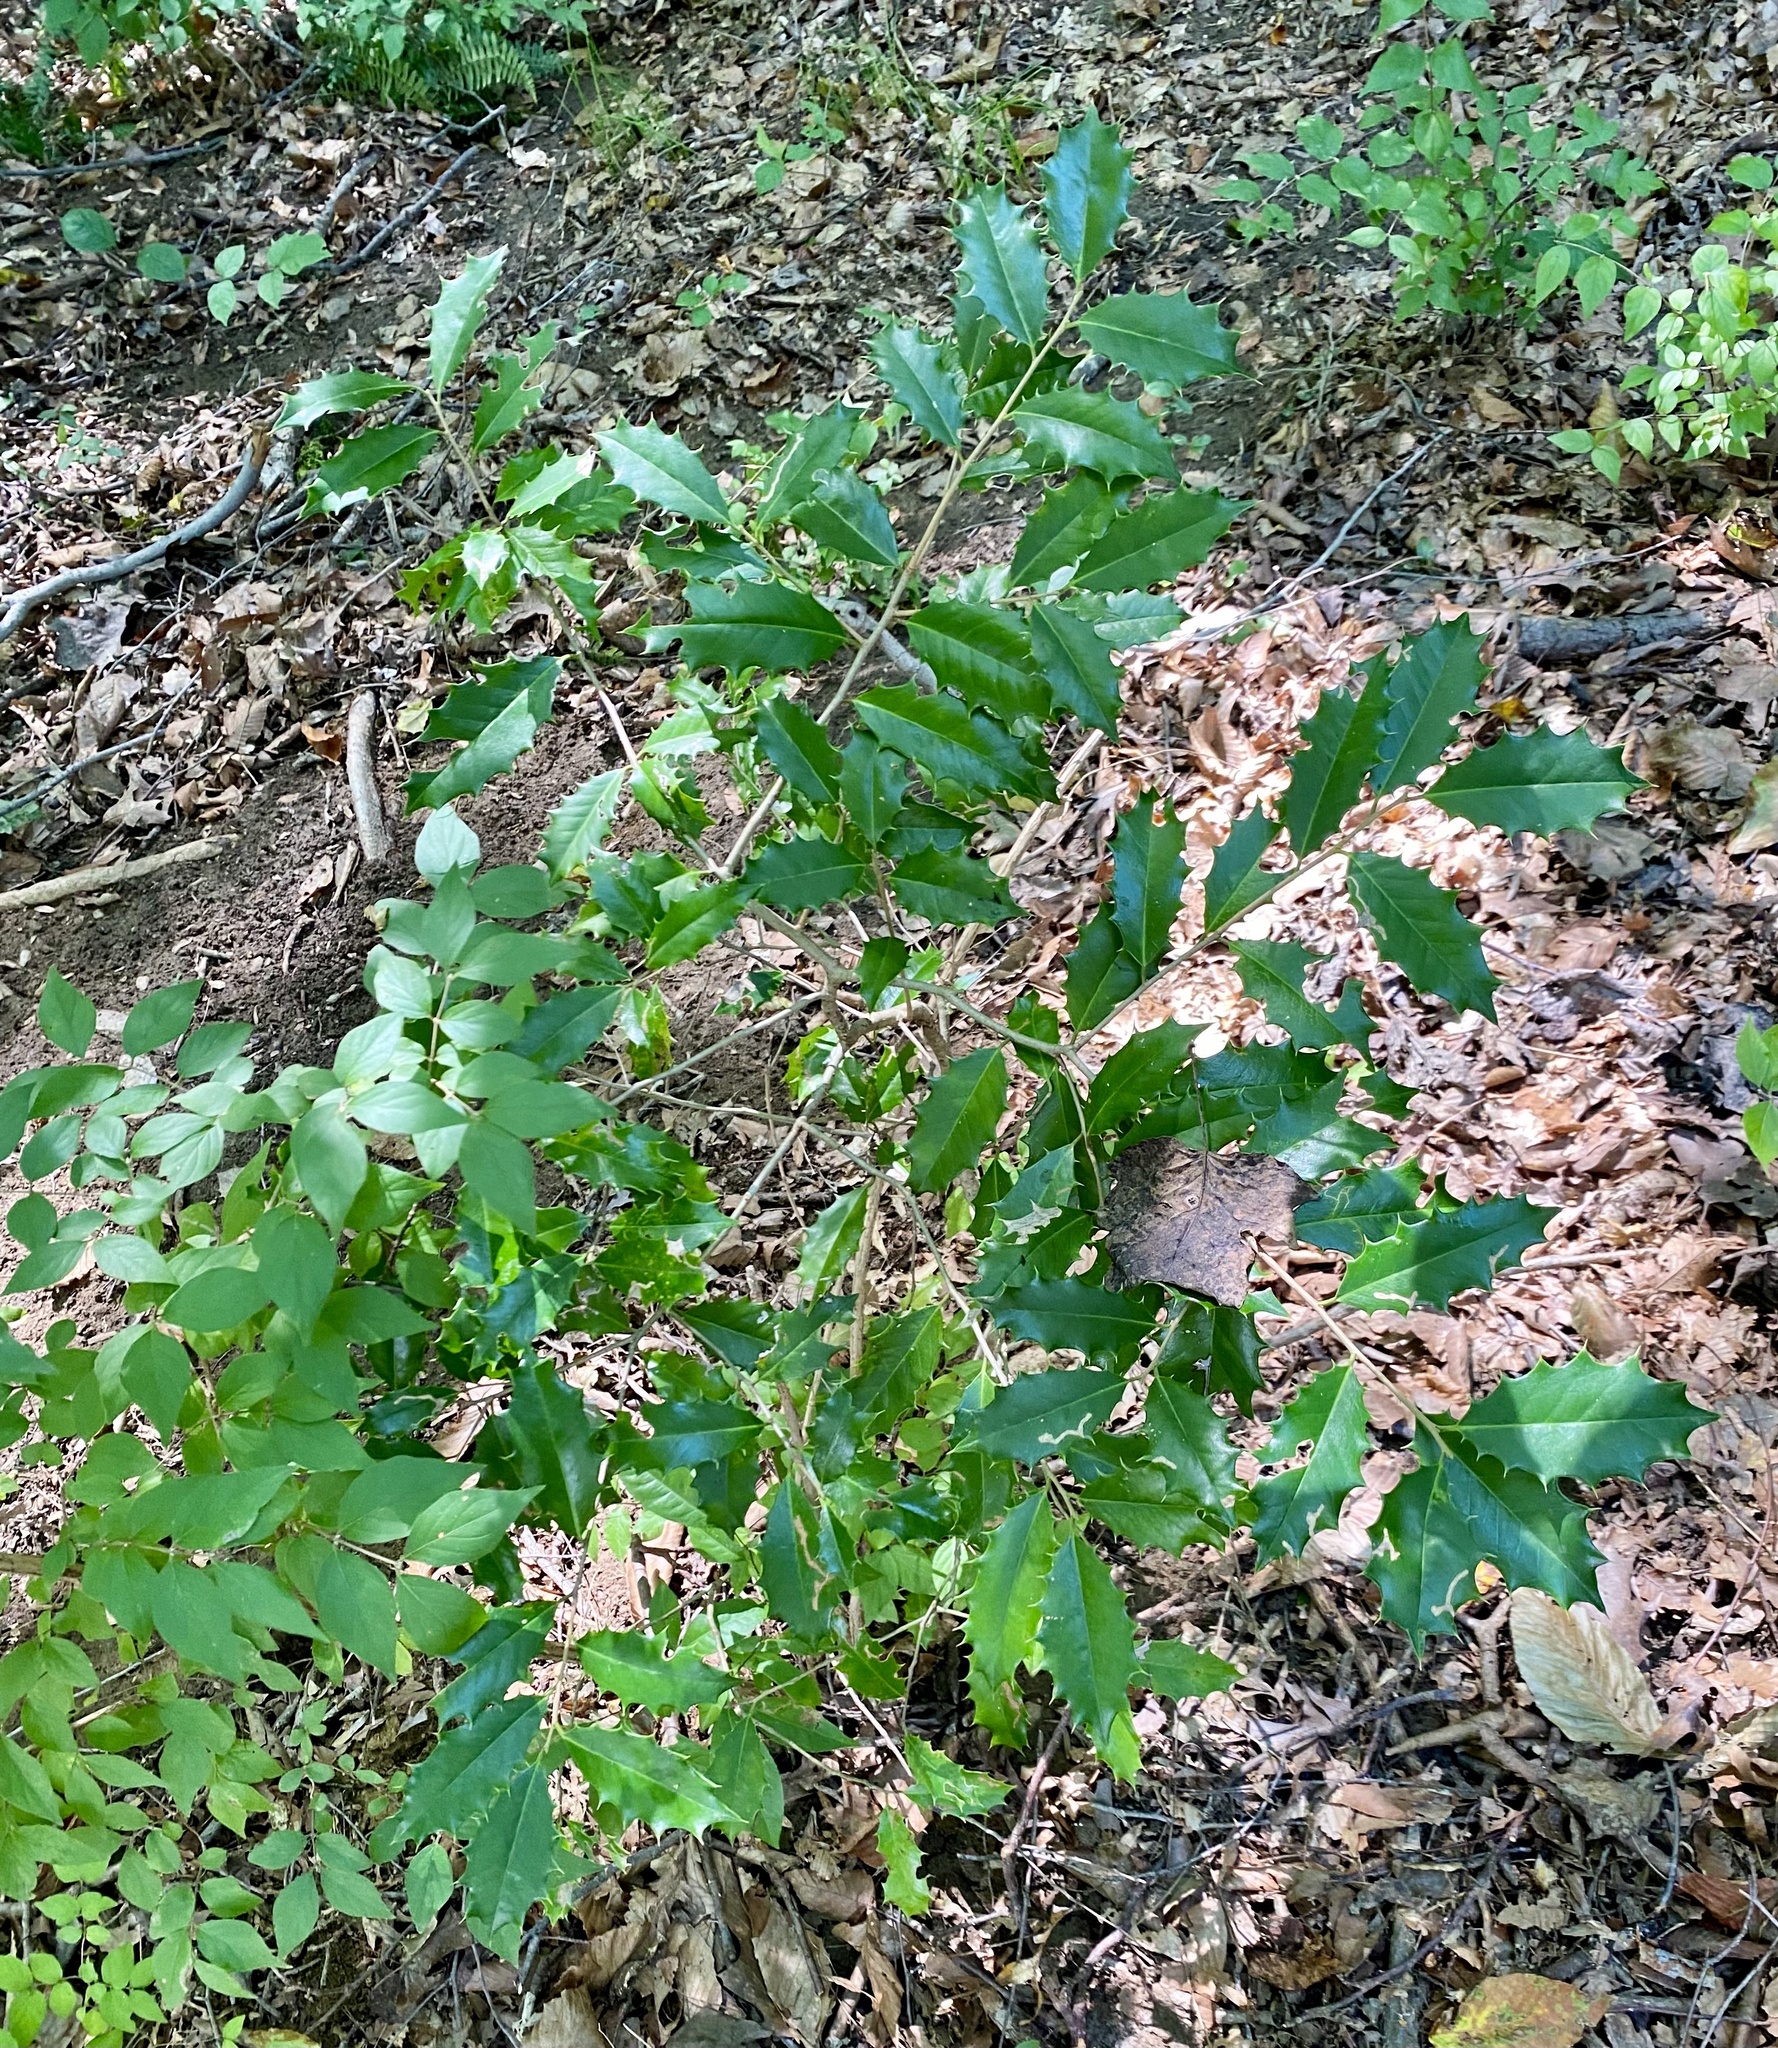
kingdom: Plantae
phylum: Tracheophyta
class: Magnoliopsida
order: Aquifoliales
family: Aquifoliaceae
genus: Ilex
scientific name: Ilex opaca
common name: American holly
